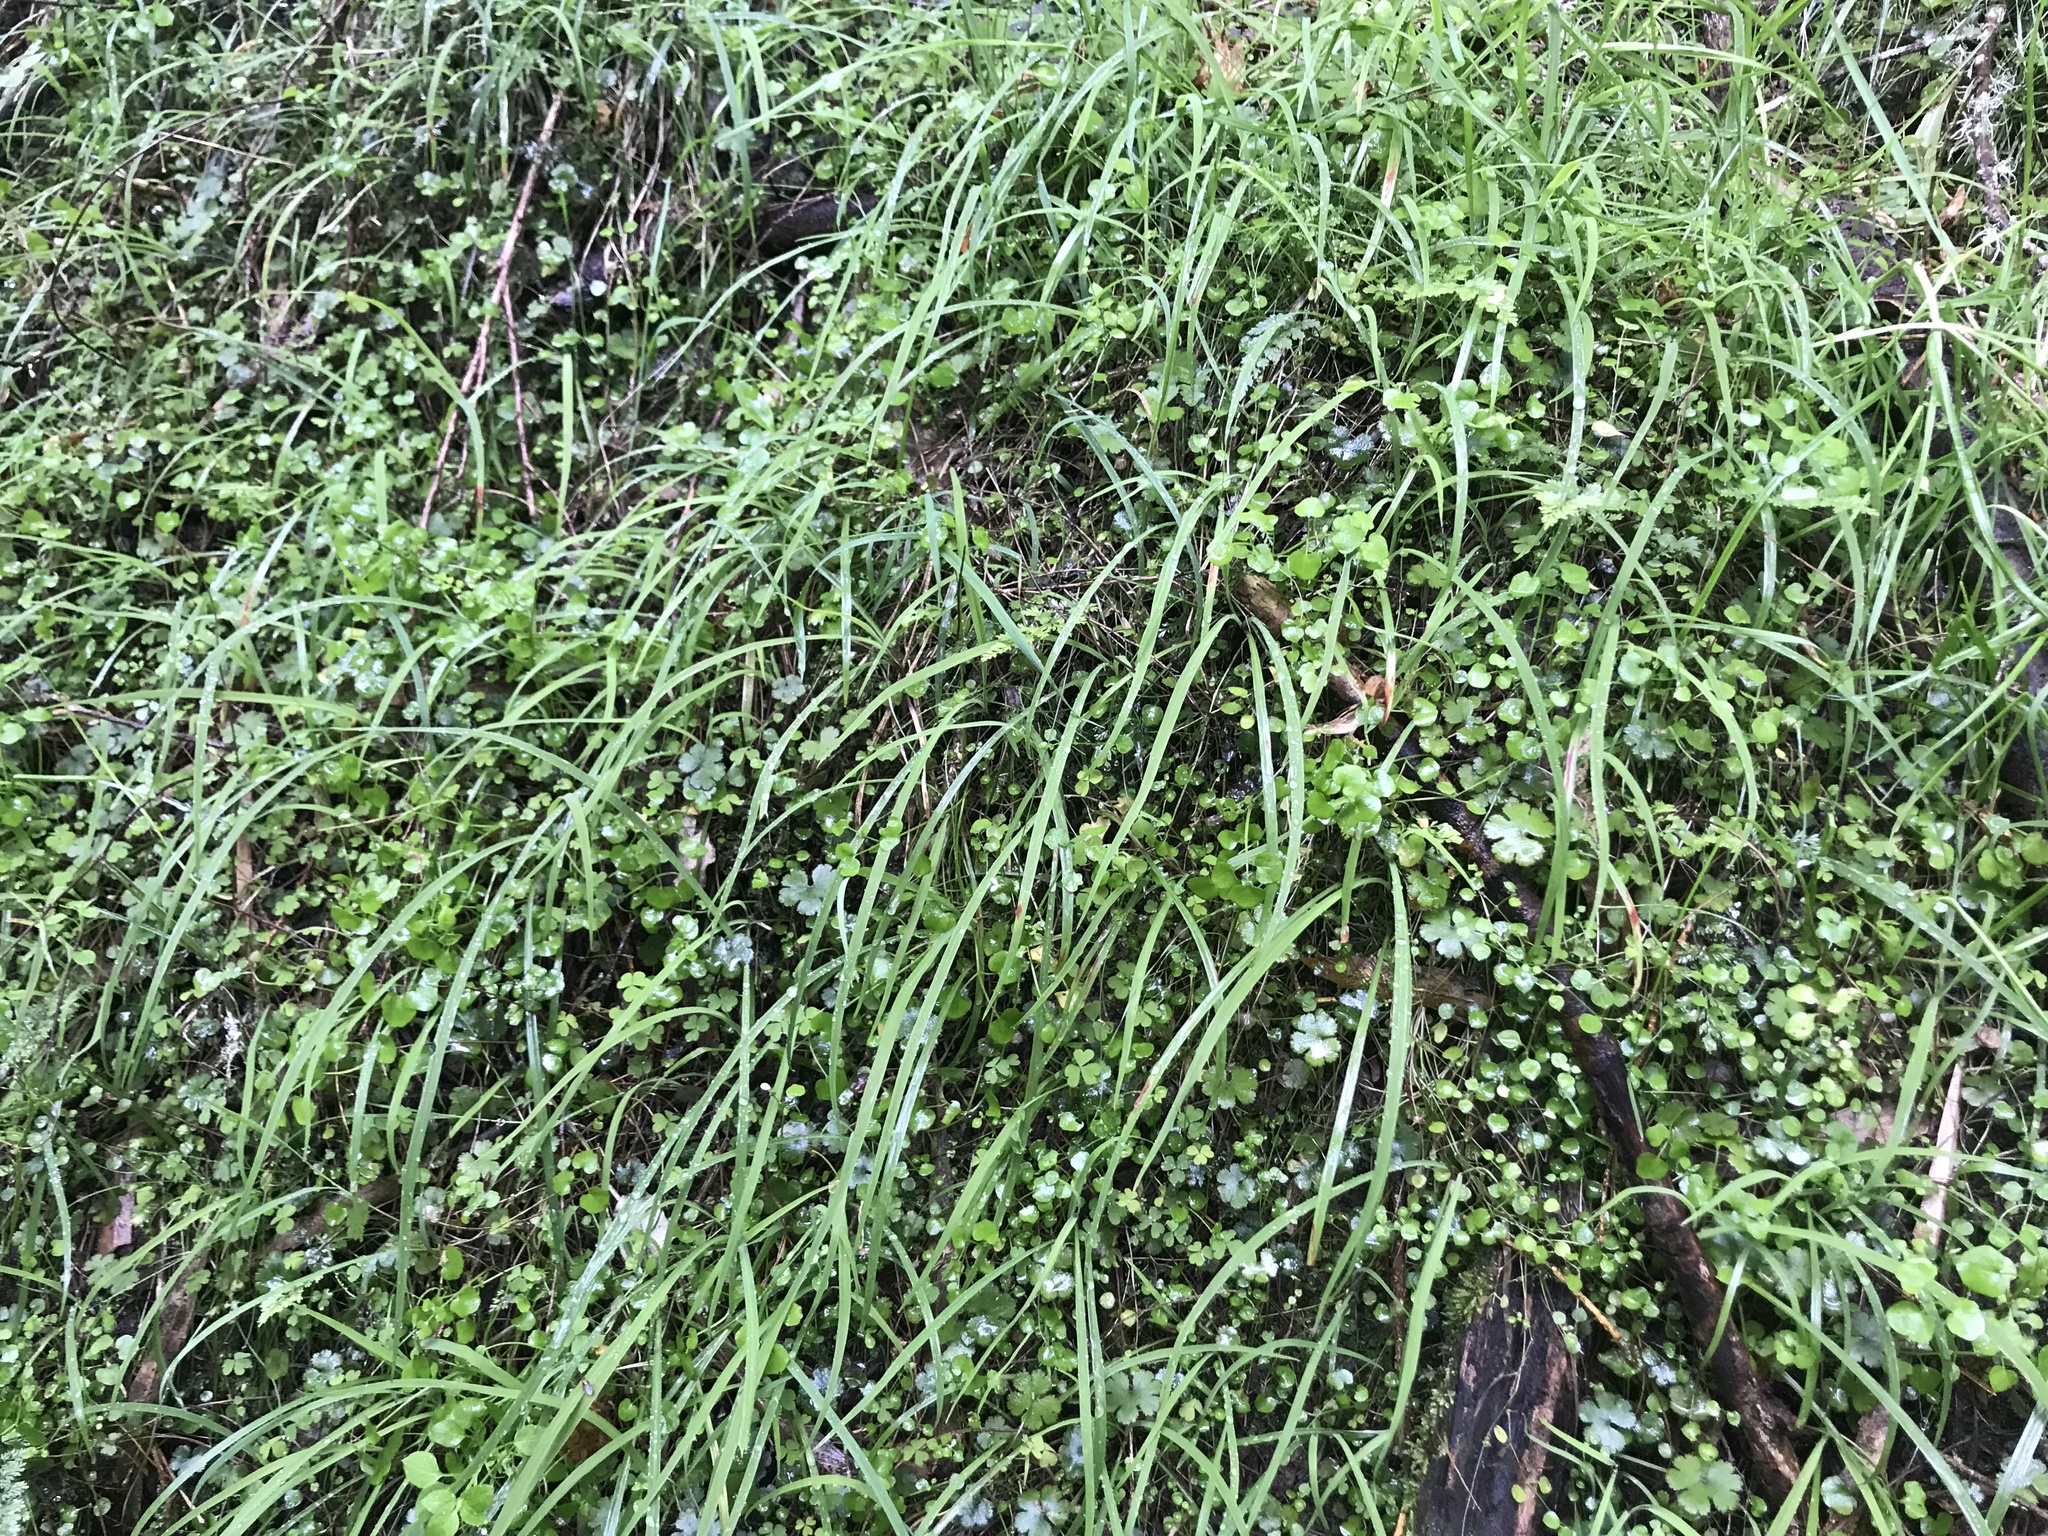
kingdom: Plantae
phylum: Tracheophyta
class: Liliopsida
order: Asparagales
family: Asparagaceae
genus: Arthropodium
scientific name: Arthropodium candidum
